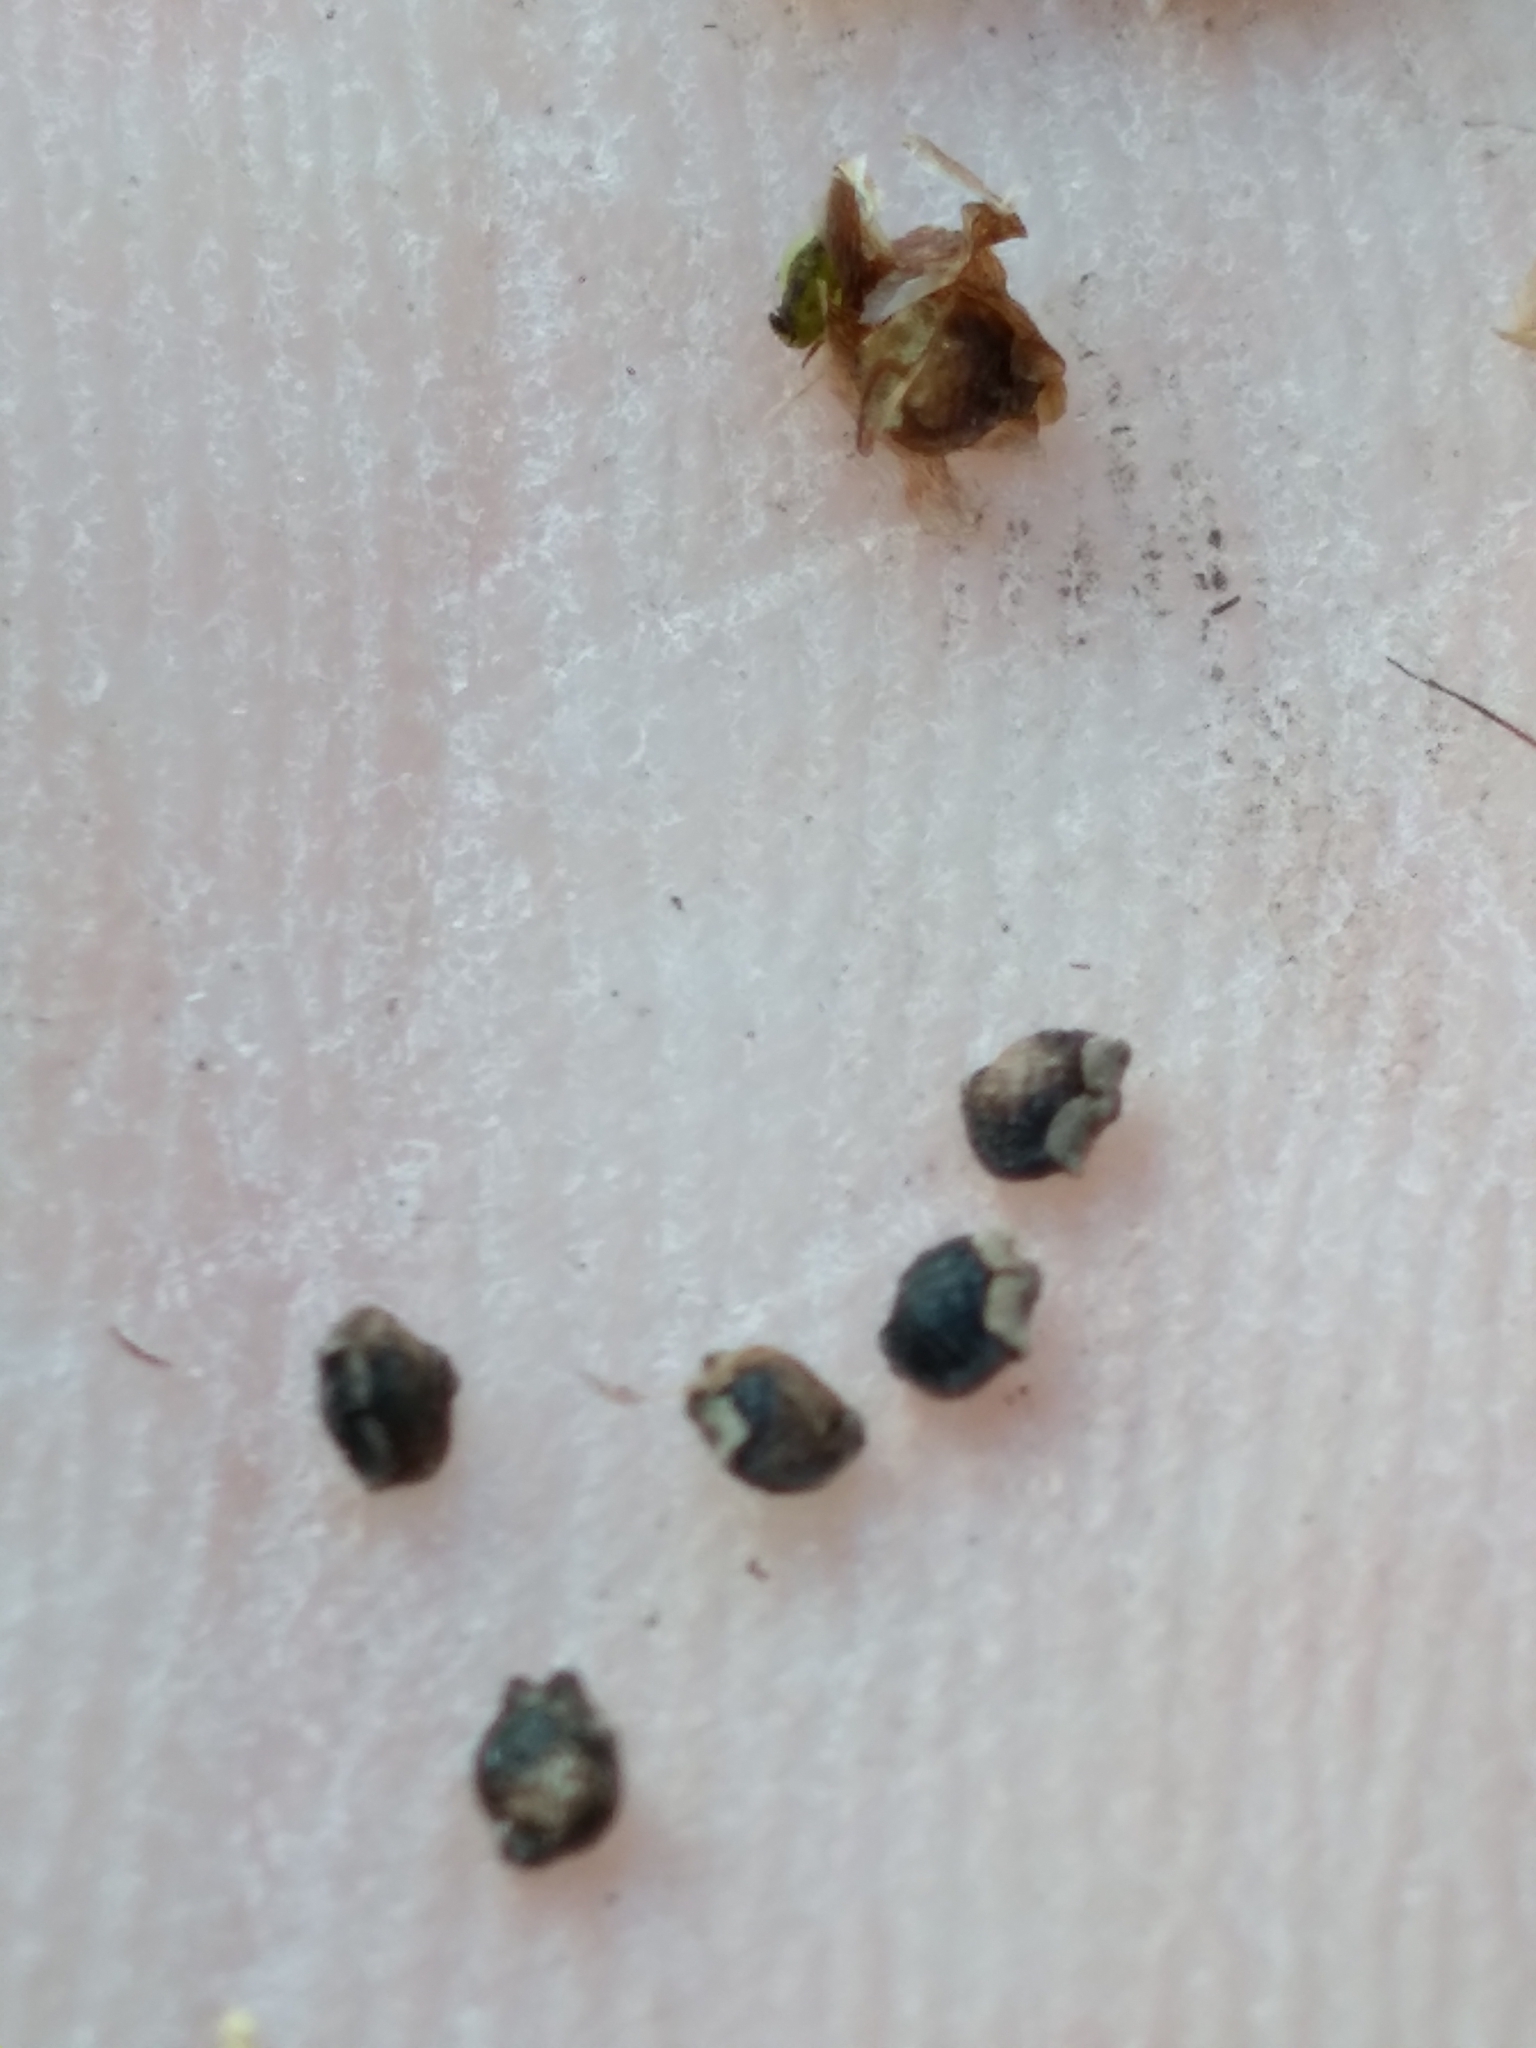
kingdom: Plantae
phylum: Tracheophyta
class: Liliopsida
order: Poales
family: Cyperaceae
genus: Rhynchospora
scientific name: Rhynchospora eximia
